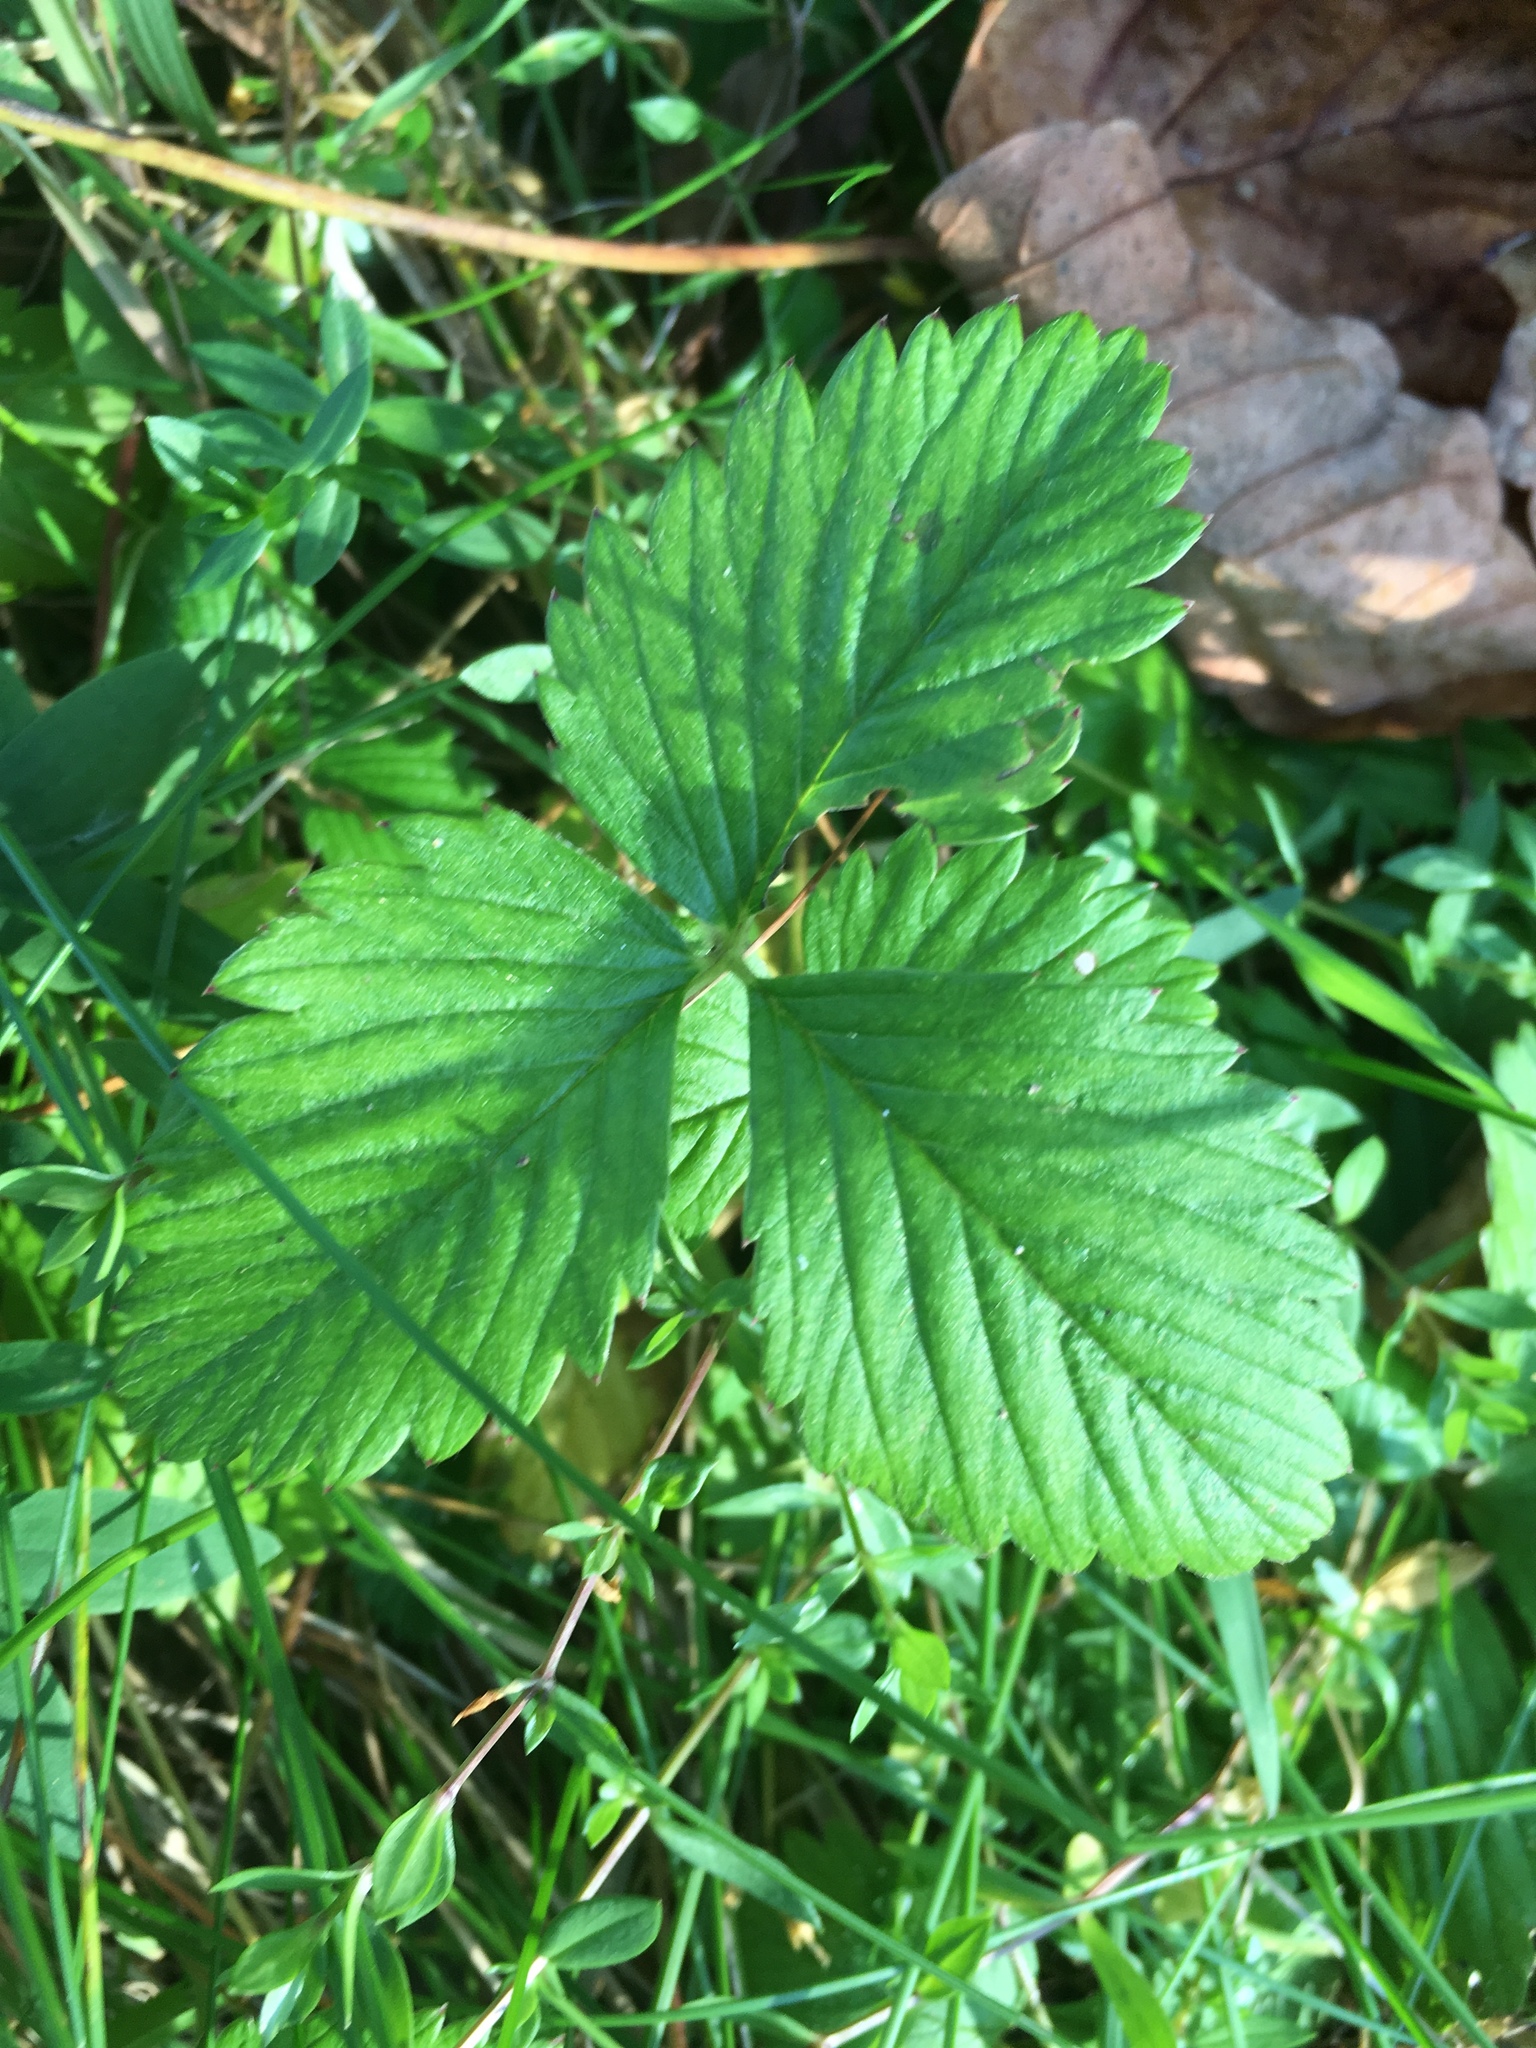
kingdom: Plantae
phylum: Tracheophyta
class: Magnoliopsida
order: Rosales
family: Rosaceae
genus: Fragaria
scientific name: Fragaria vesca
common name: Wild strawberry
